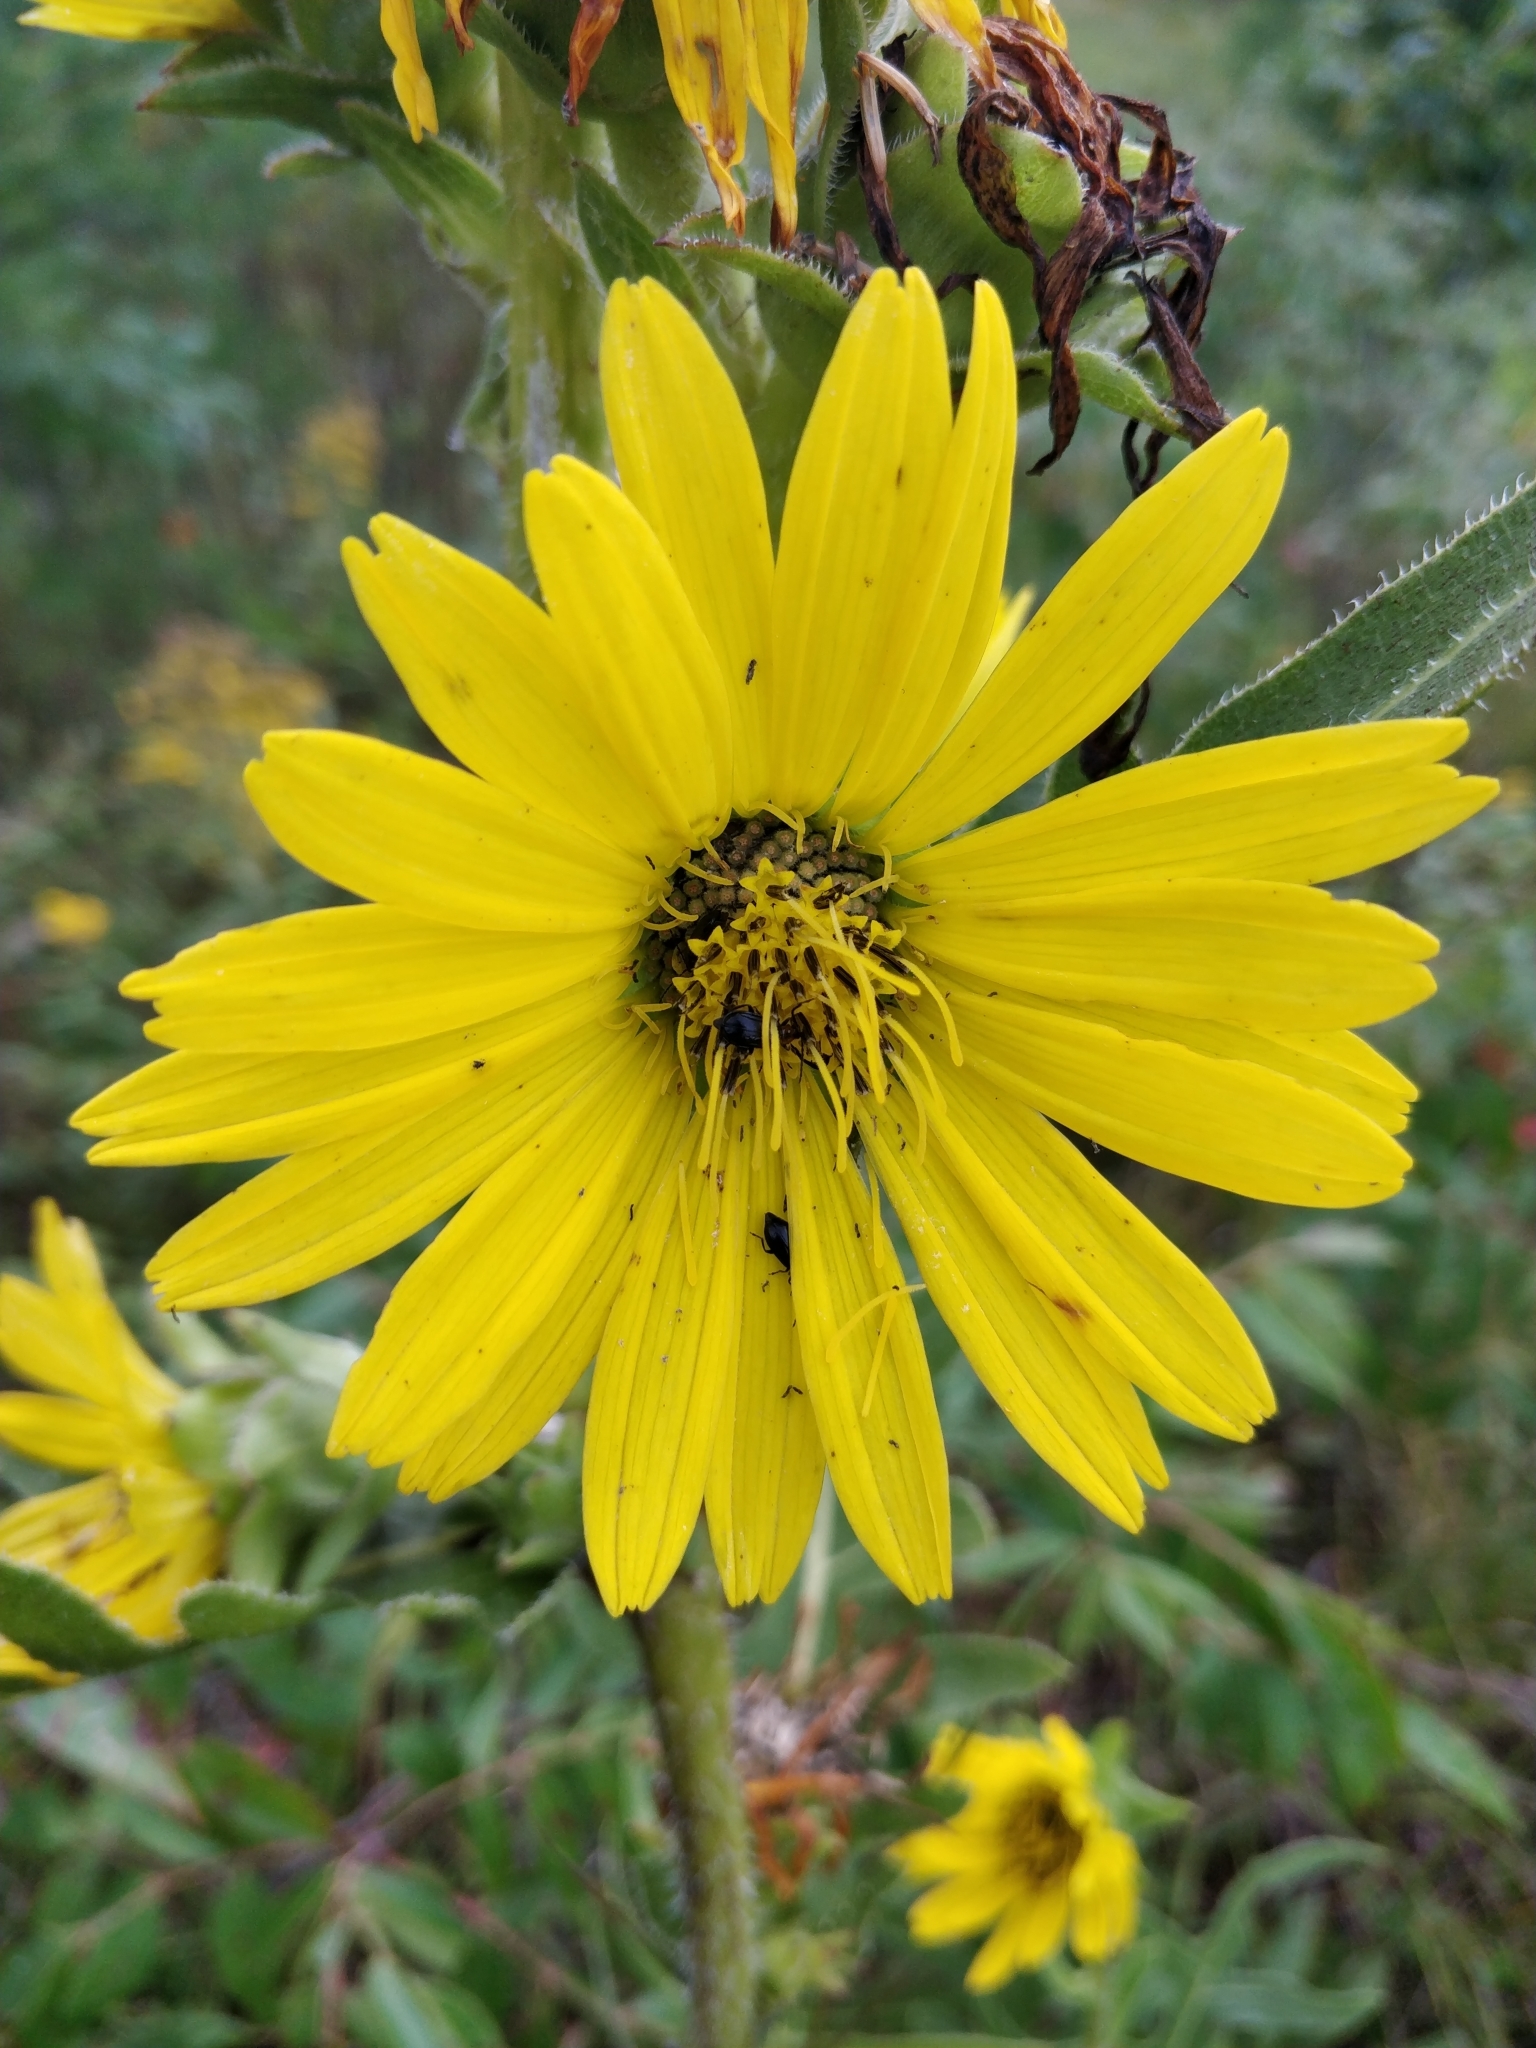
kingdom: Plantae
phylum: Tracheophyta
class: Magnoliopsida
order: Asterales
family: Asteraceae
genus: Silphium
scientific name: Silphium laciniatum
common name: Polarplant
